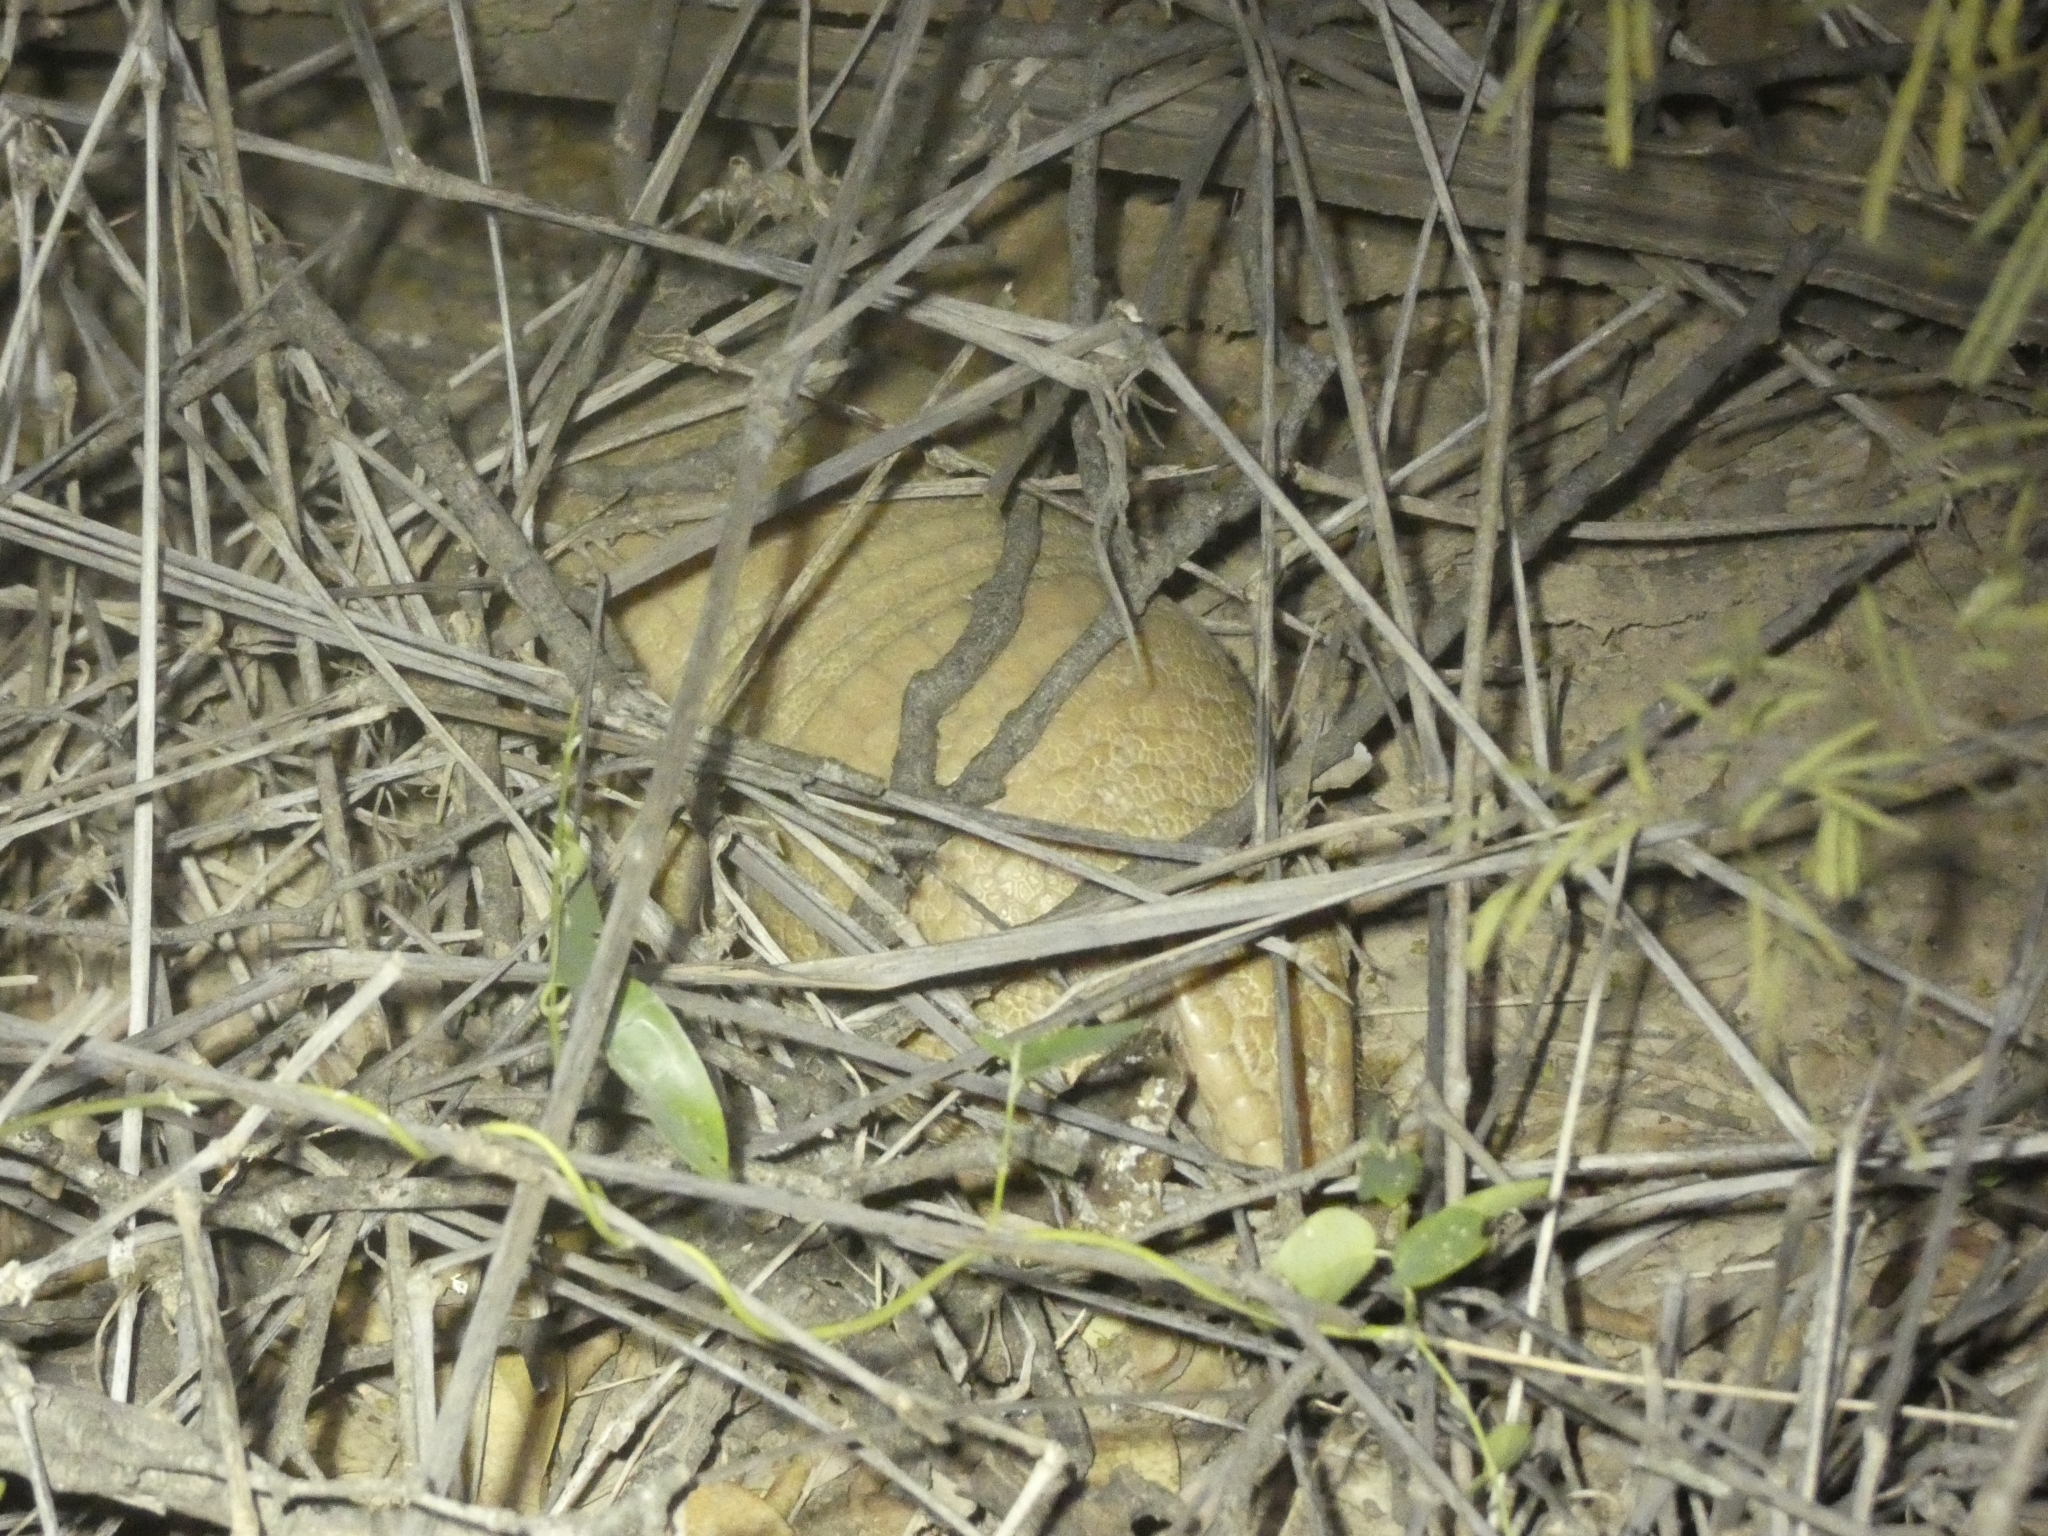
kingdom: Animalia
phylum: Chordata
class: Mammalia
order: Cingulata
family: Dasypodidae
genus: Tolypeutes
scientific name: Tolypeutes matacus
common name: Southern three-banded armadillo
